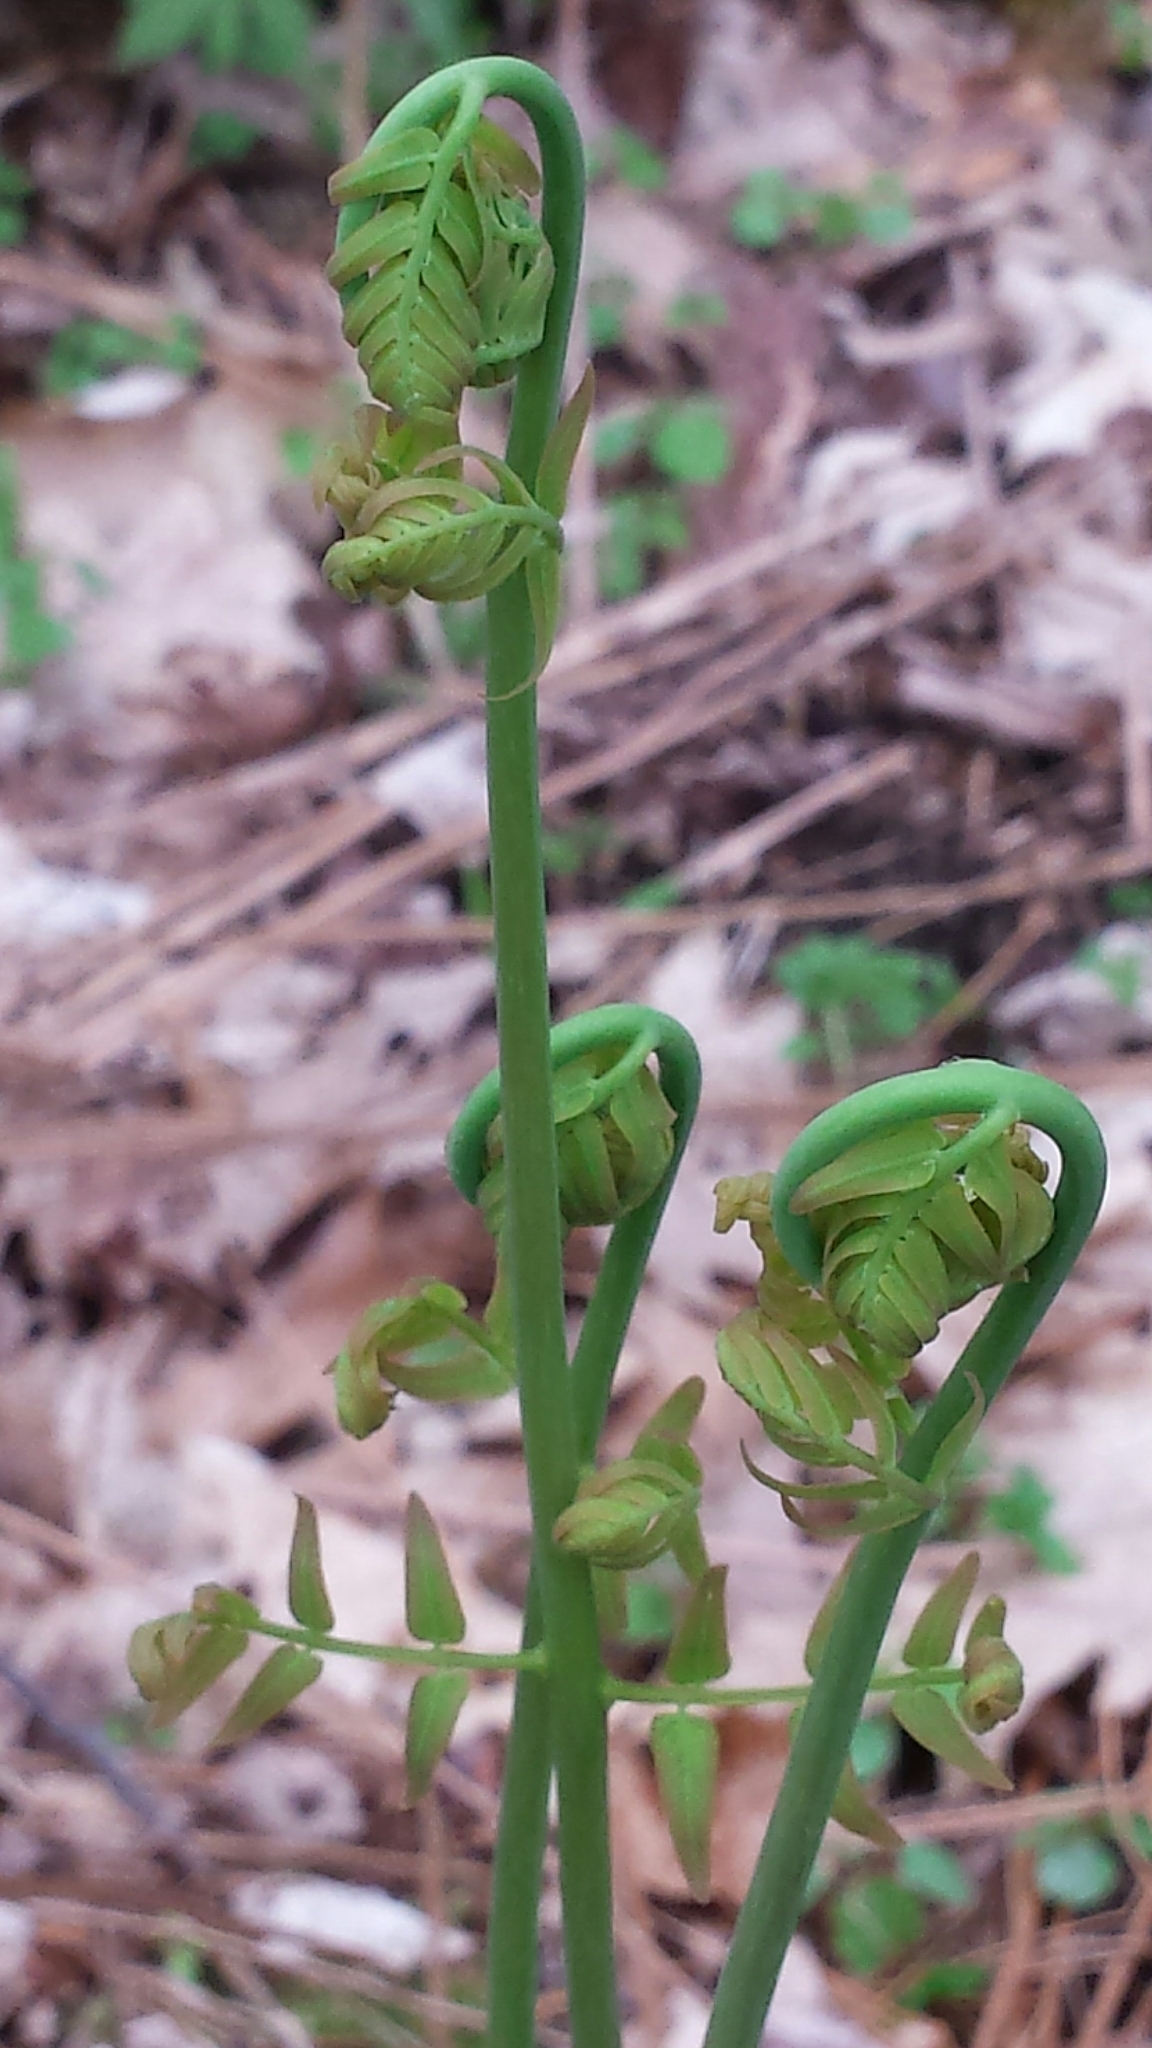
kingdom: Plantae
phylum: Tracheophyta
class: Polypodiopsida
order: Osmundales
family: Osmundaceae
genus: Osmunda
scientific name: Osmunda spectabilis
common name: American royal fern
